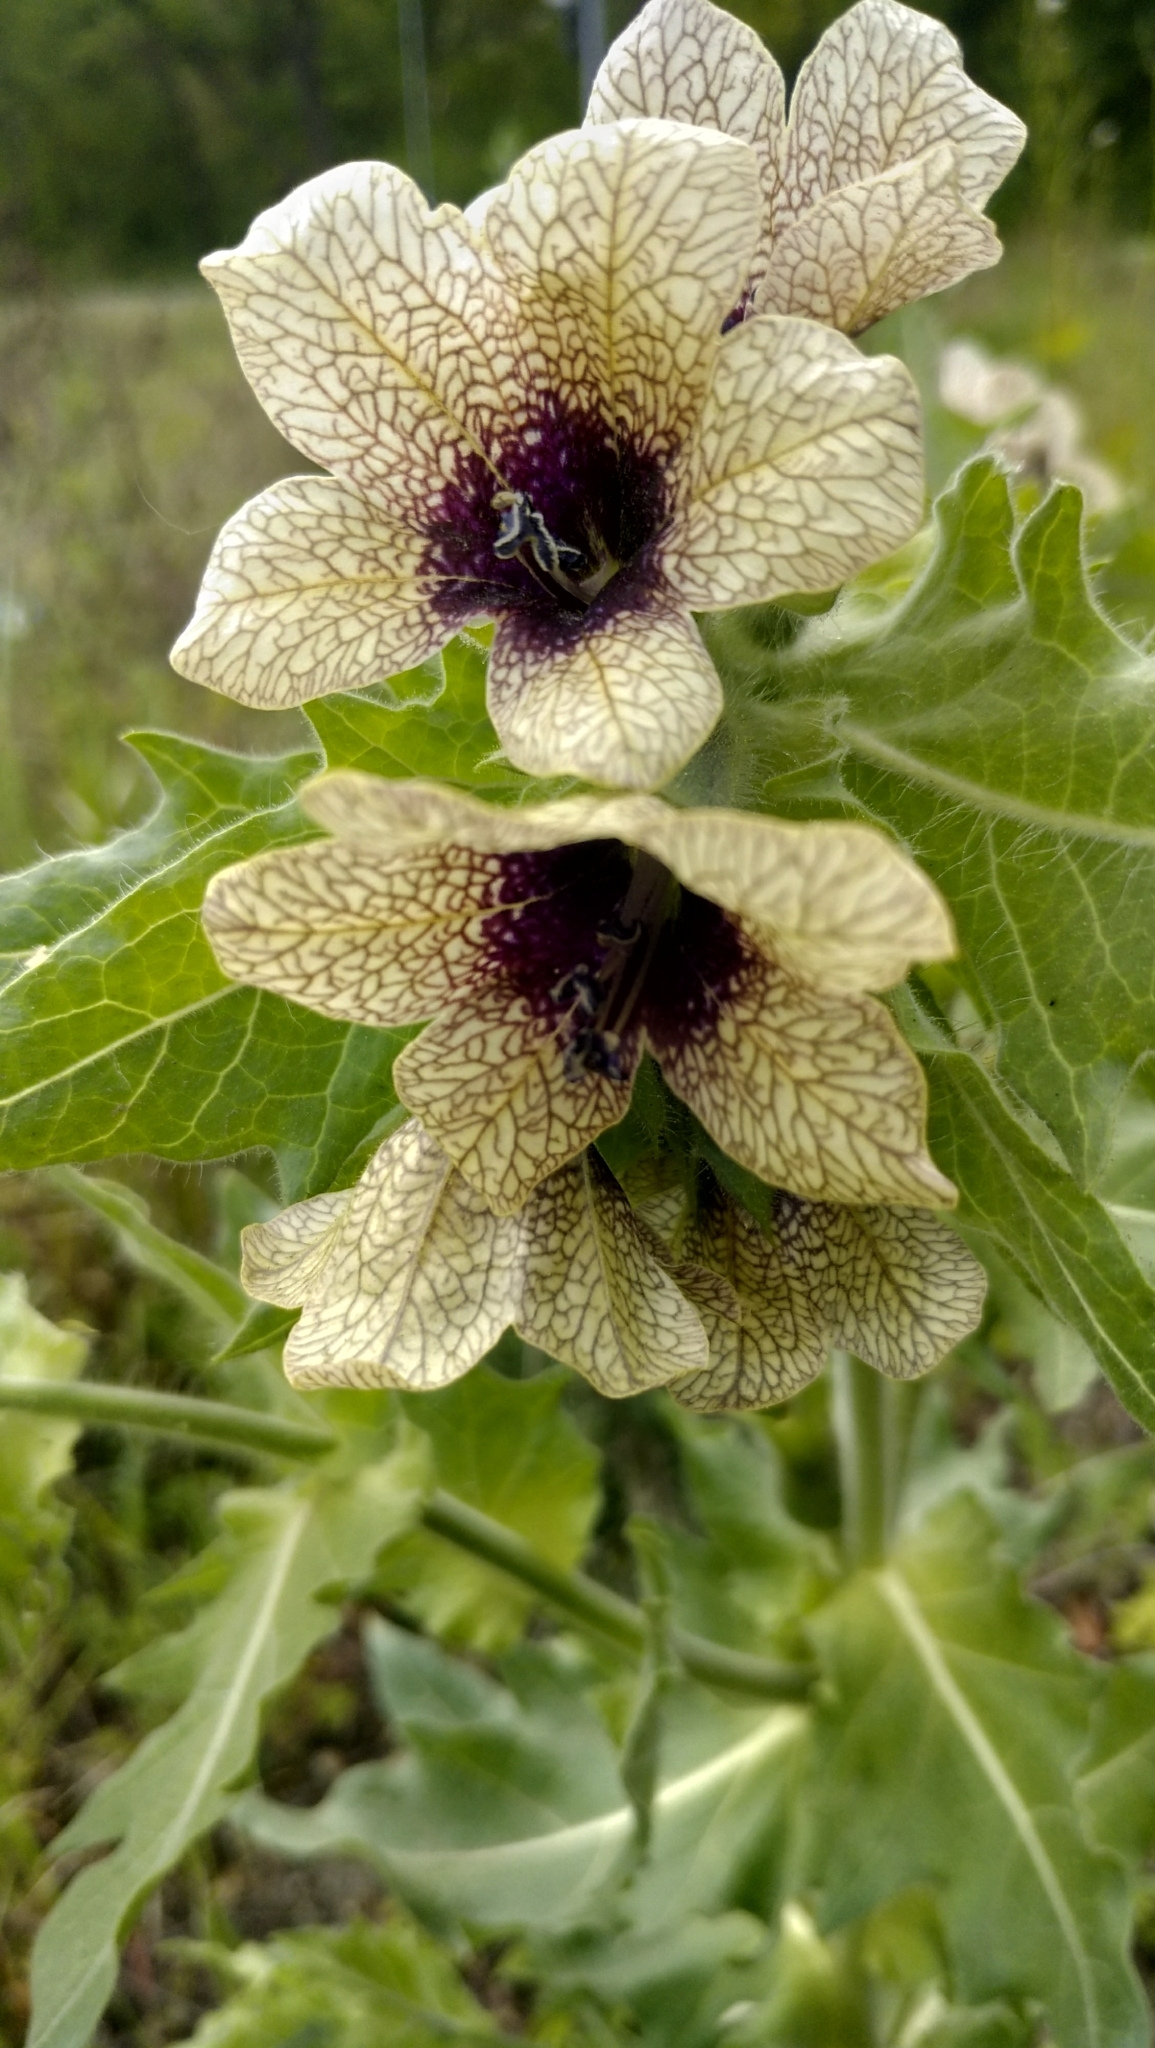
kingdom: Plantae
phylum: Tracheophyta
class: Magnoliopsida
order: Solanales
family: Solanaceae
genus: Hyoscyamus
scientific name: Hyoscyamus niger
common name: Henbane
